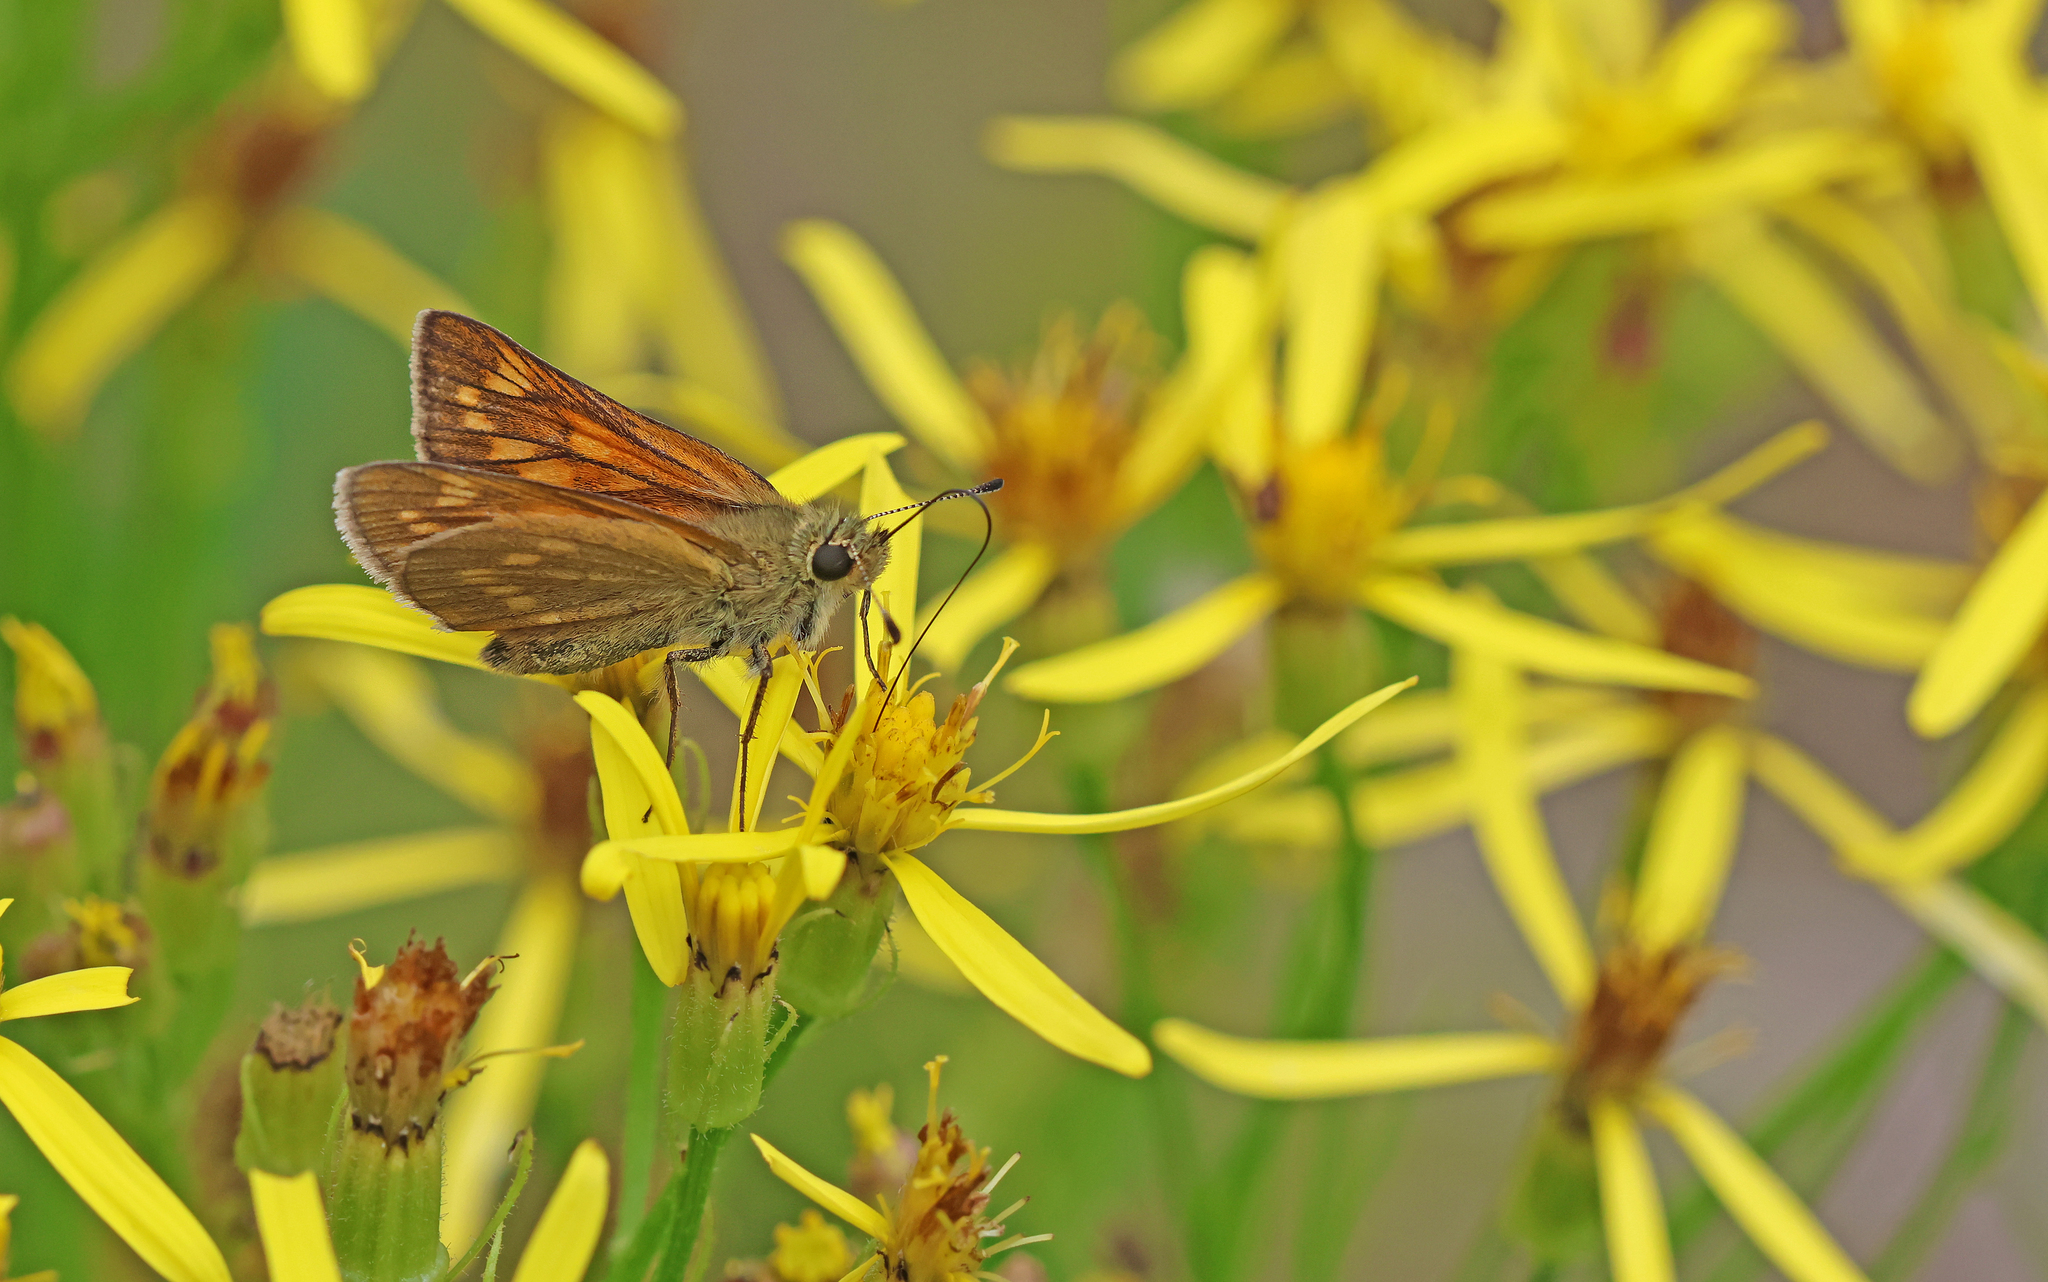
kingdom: Animalia
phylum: Arthropoda
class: Insecta
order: Lepidoptera
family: Hesperiidae
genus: Ochlodes
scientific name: Ochlodes venata
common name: Large skipper
